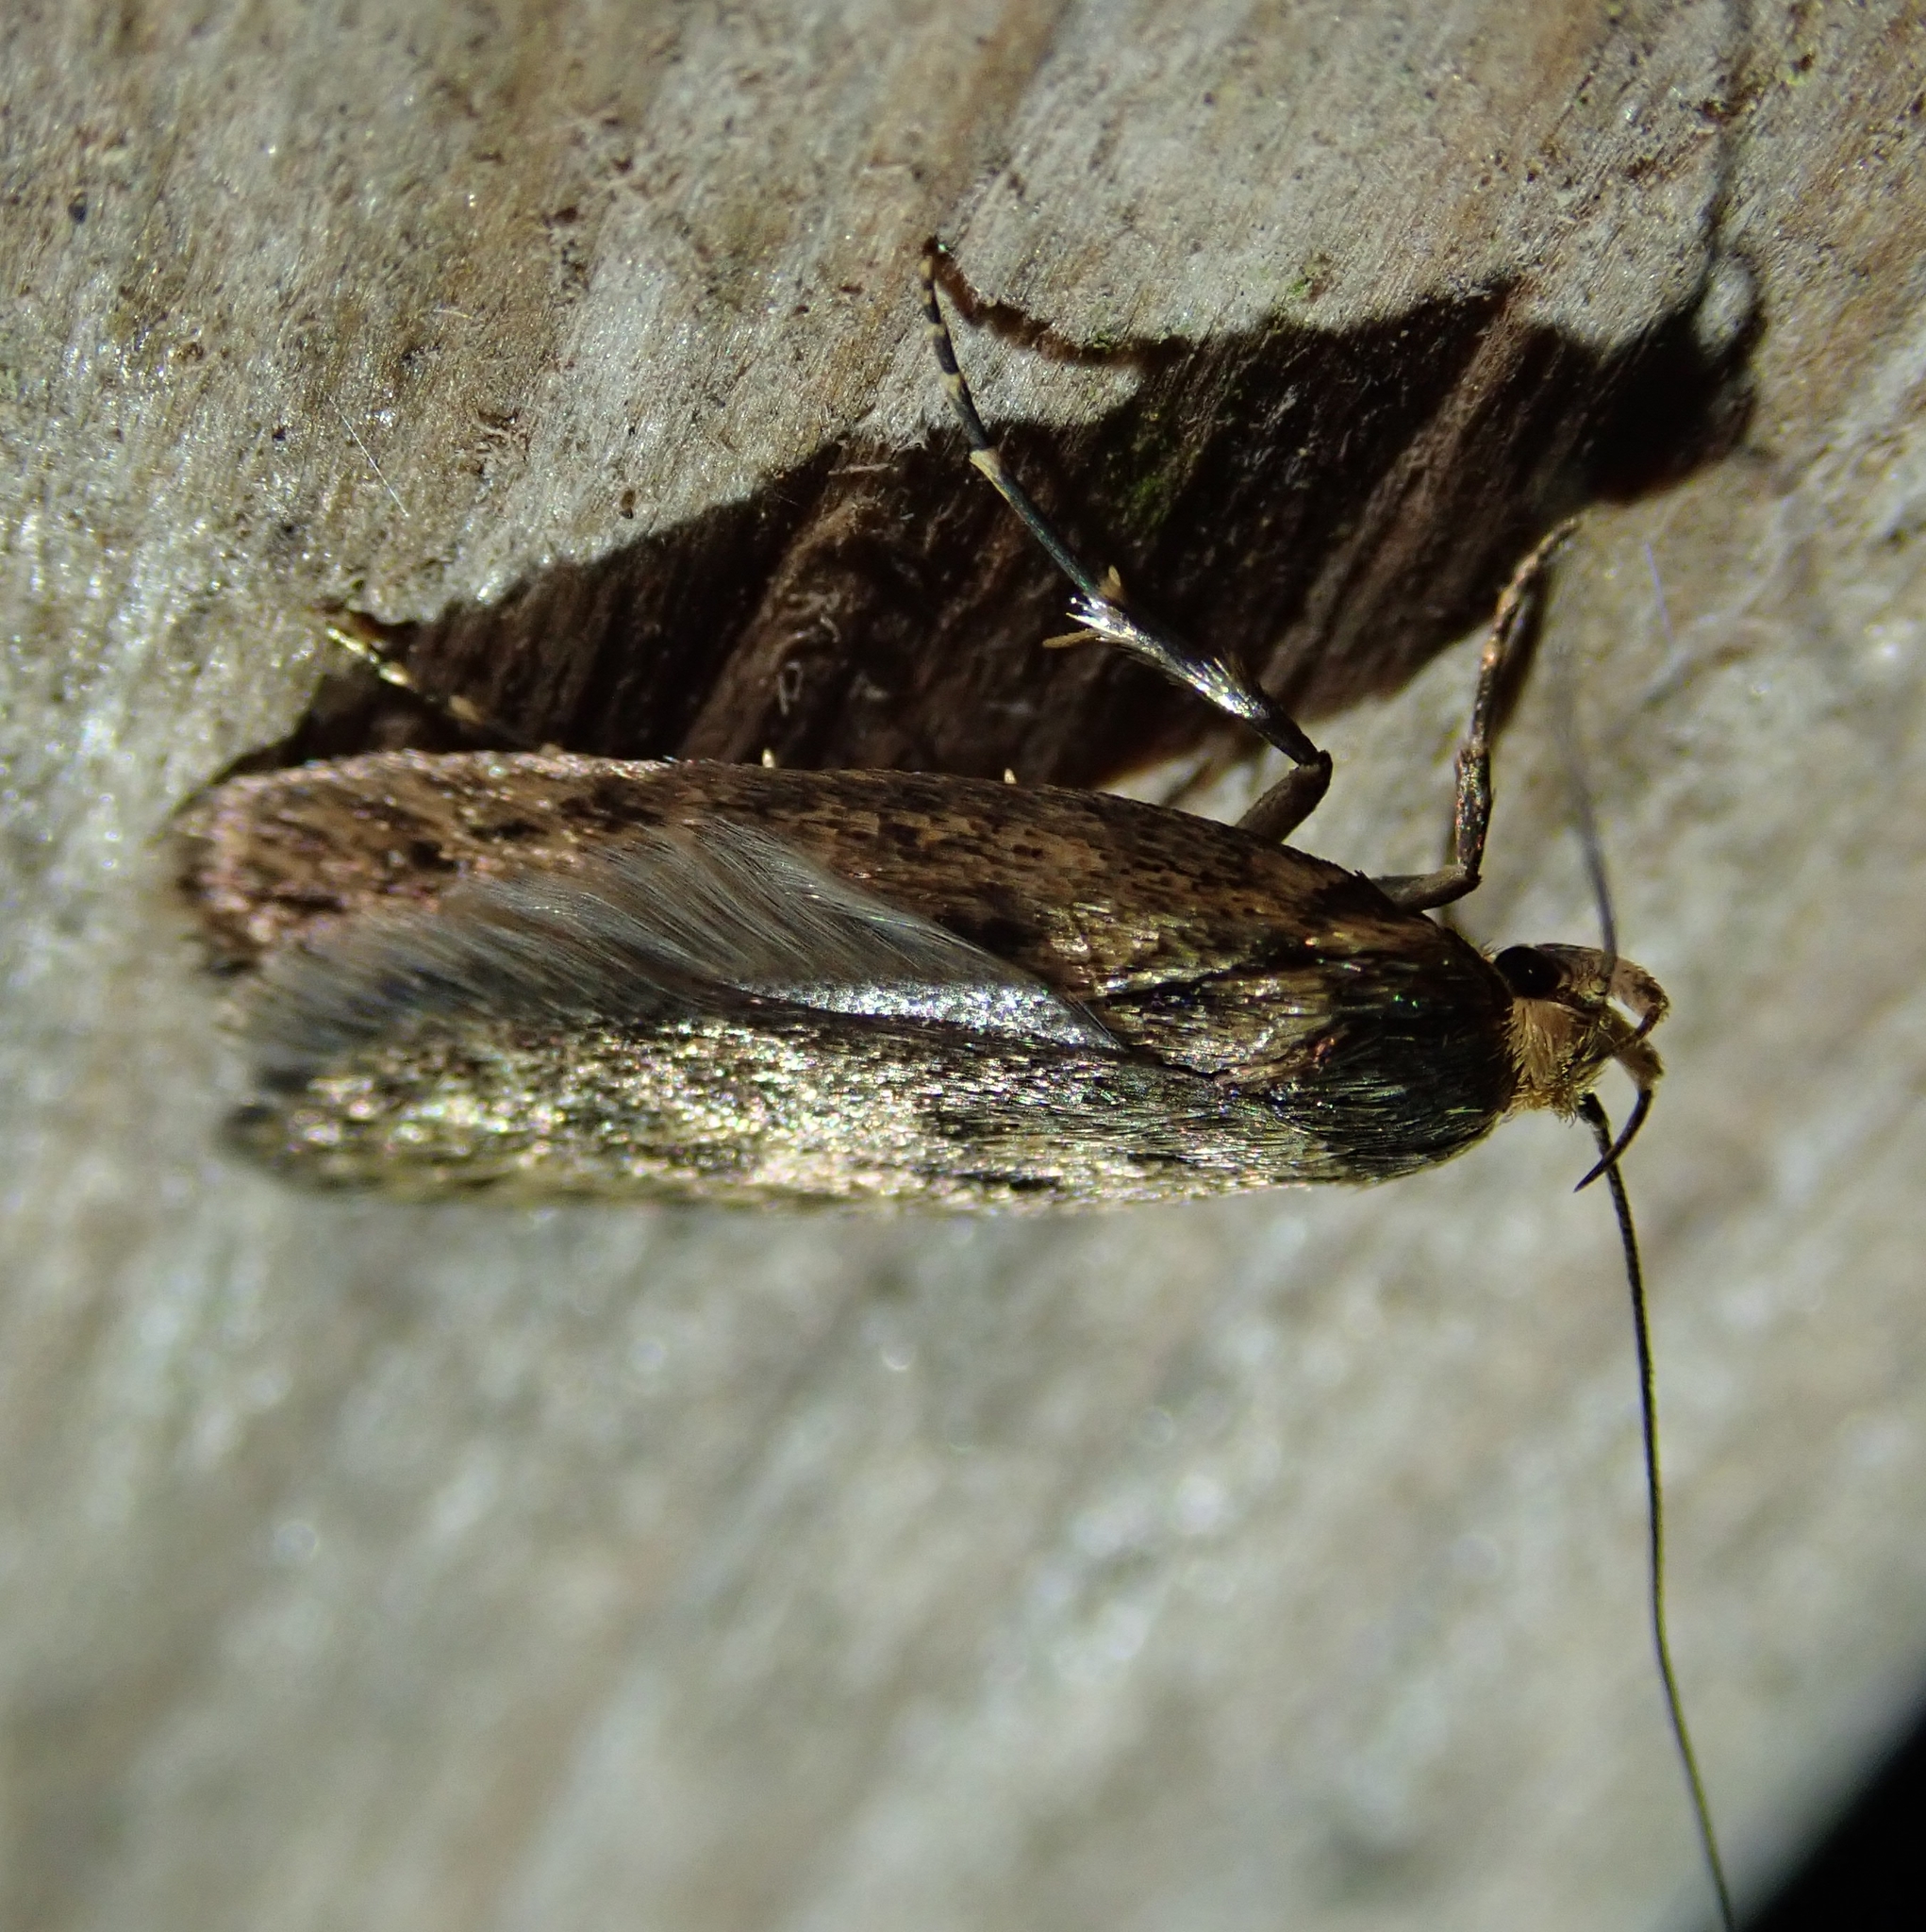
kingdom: Animalia
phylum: Arthropoda
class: Insecta
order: Lepidoptera
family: Oecophoridae
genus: Hofmannophila
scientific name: Hofmannophila pseudospretella
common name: Brown house moth
